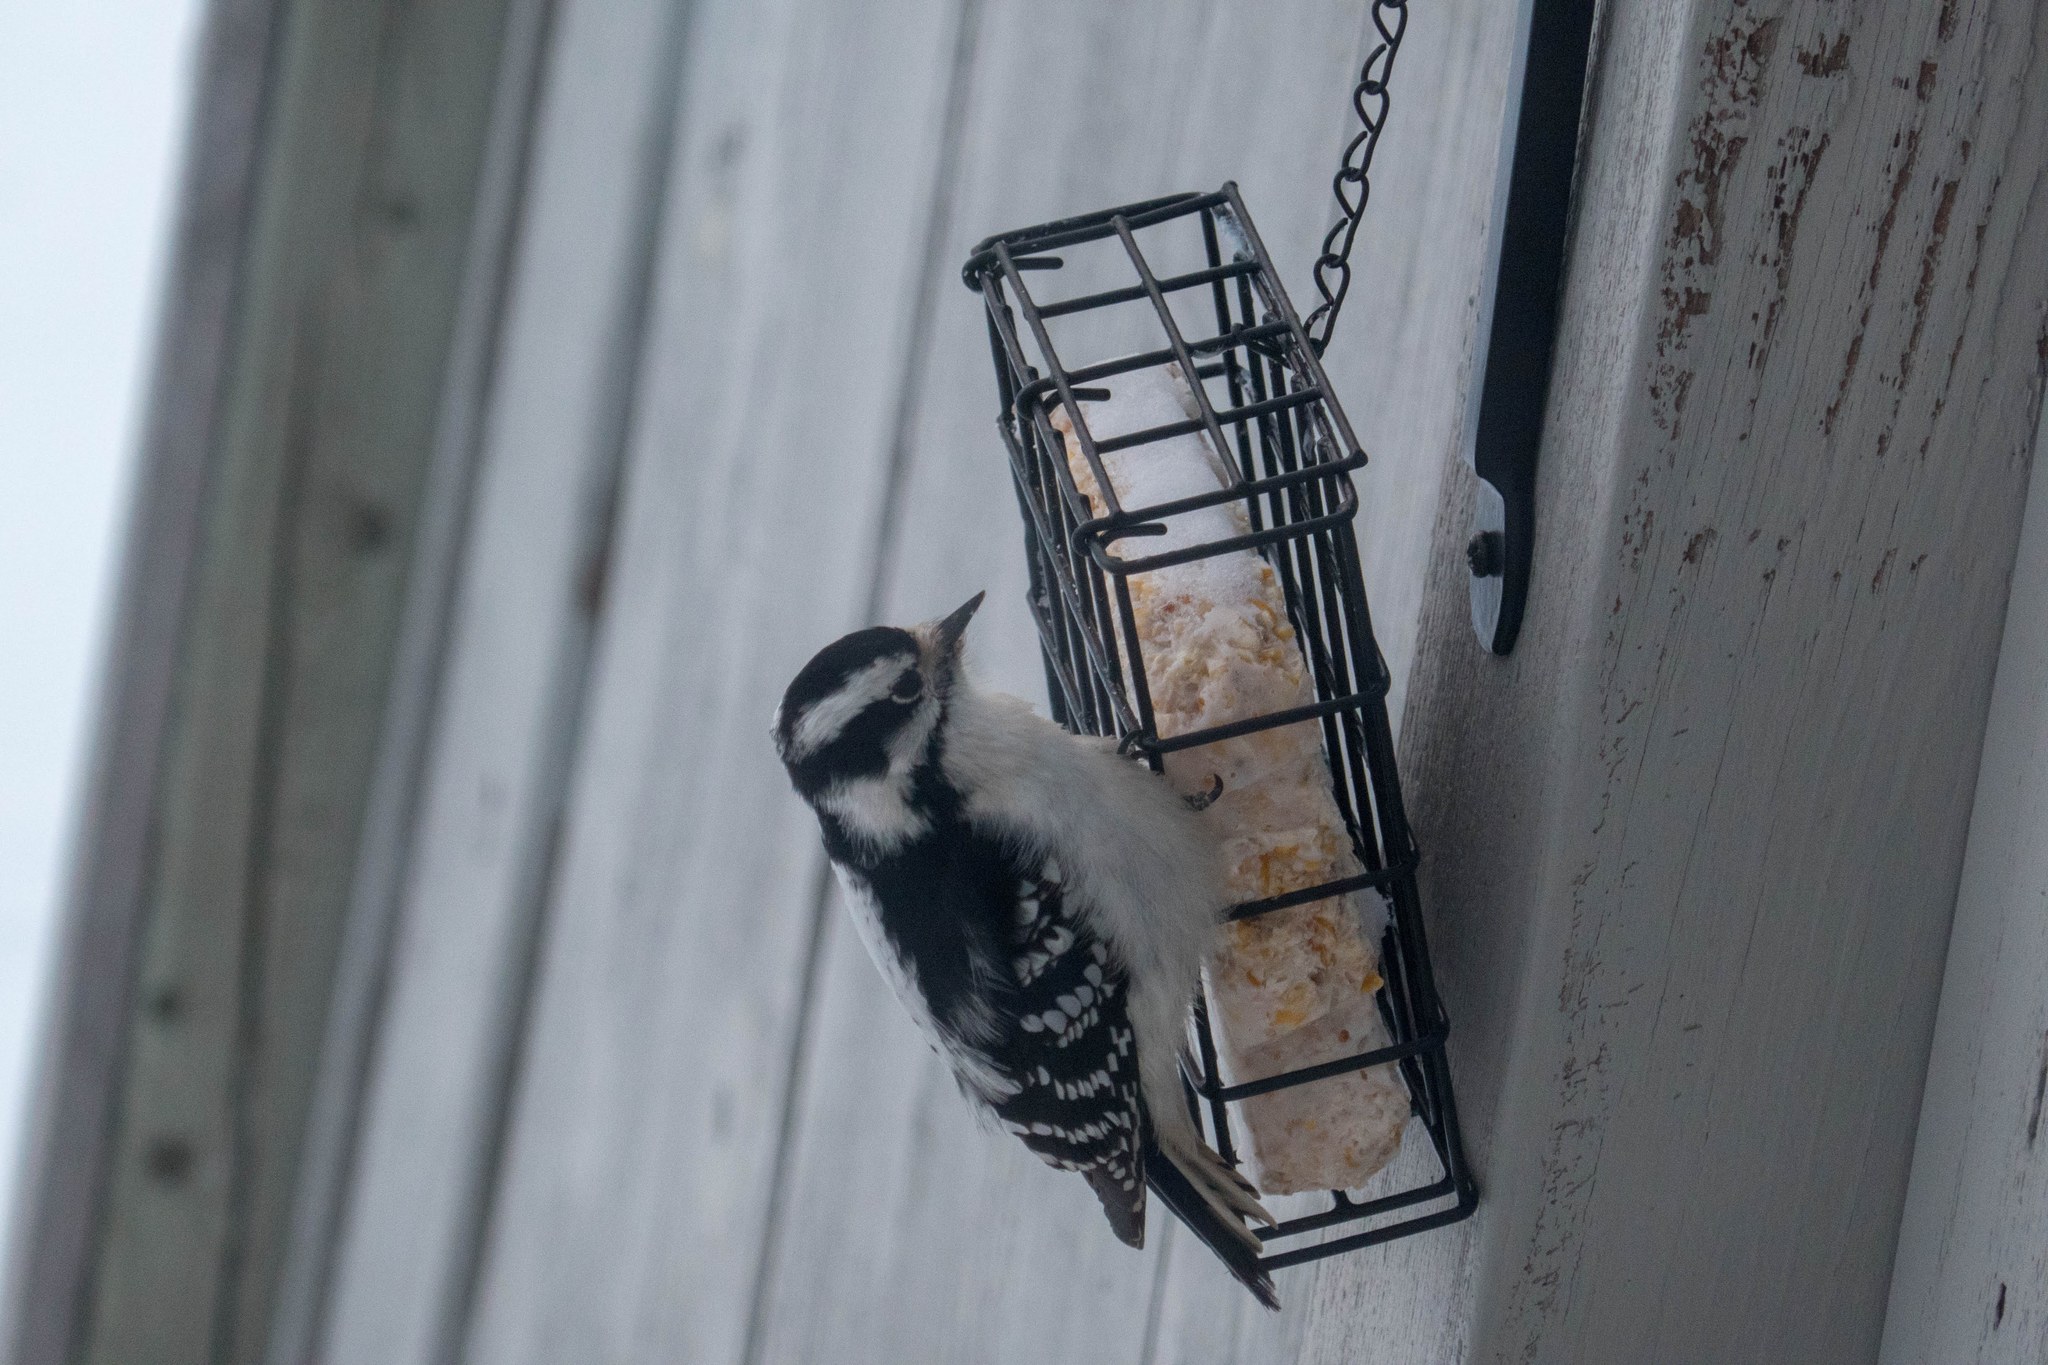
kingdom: Animalia
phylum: Chordata
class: Aves
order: Piciformes
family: Picidae
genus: Dryobates
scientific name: Dryobates pubescens
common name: Downy woodpecker
